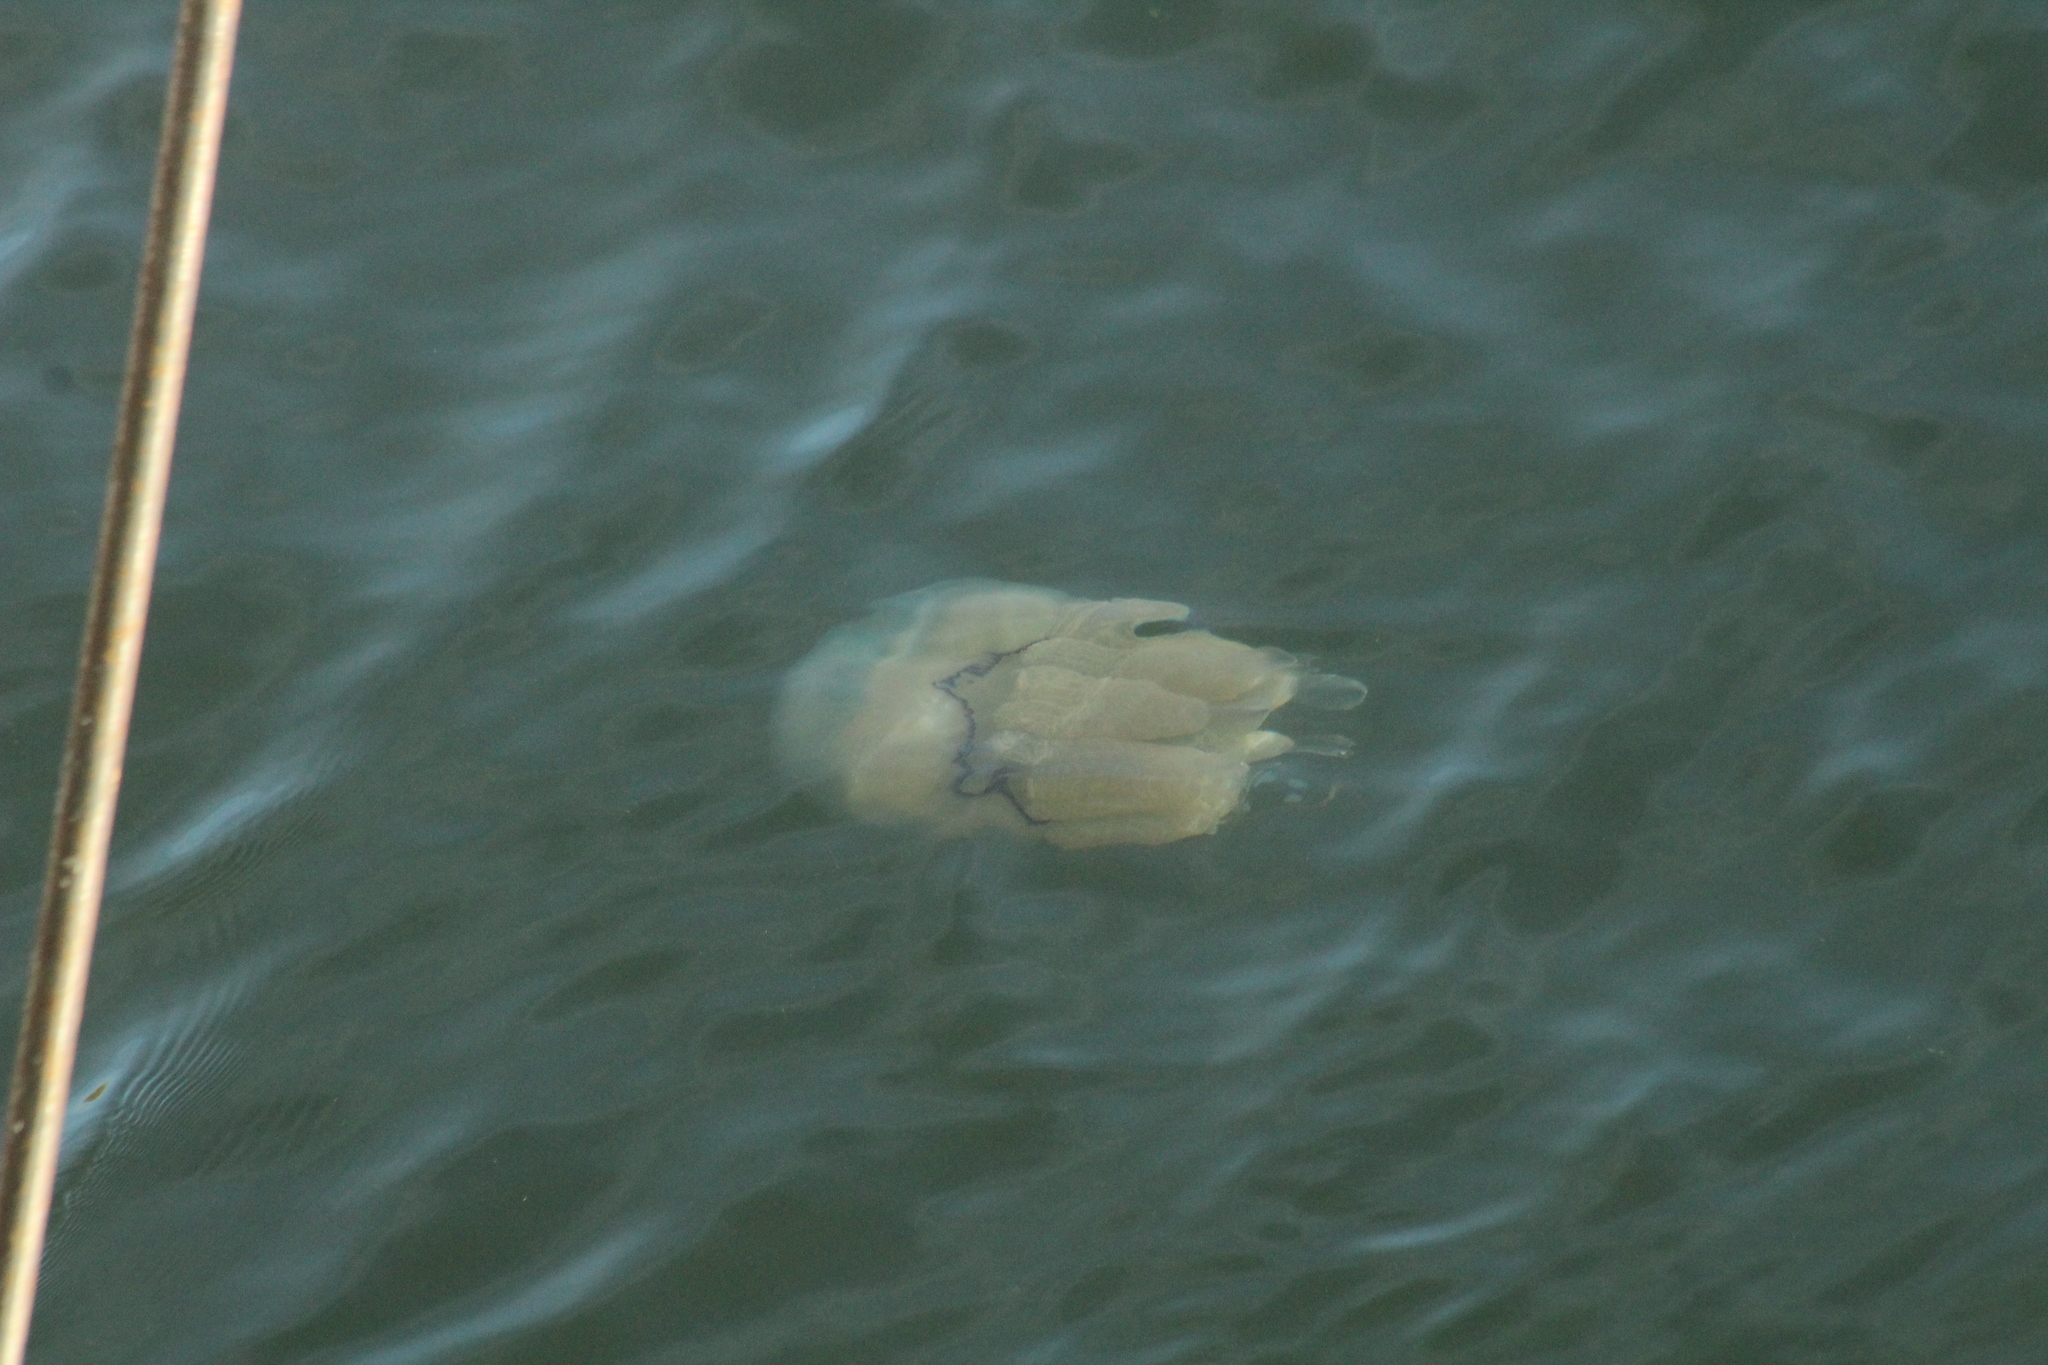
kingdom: Animalia
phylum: Cnidaria
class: Scyphozoa
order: Rhizostomeae
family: Rhizostomatidae
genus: Rhizostoma
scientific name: Rhizostoma octopus
